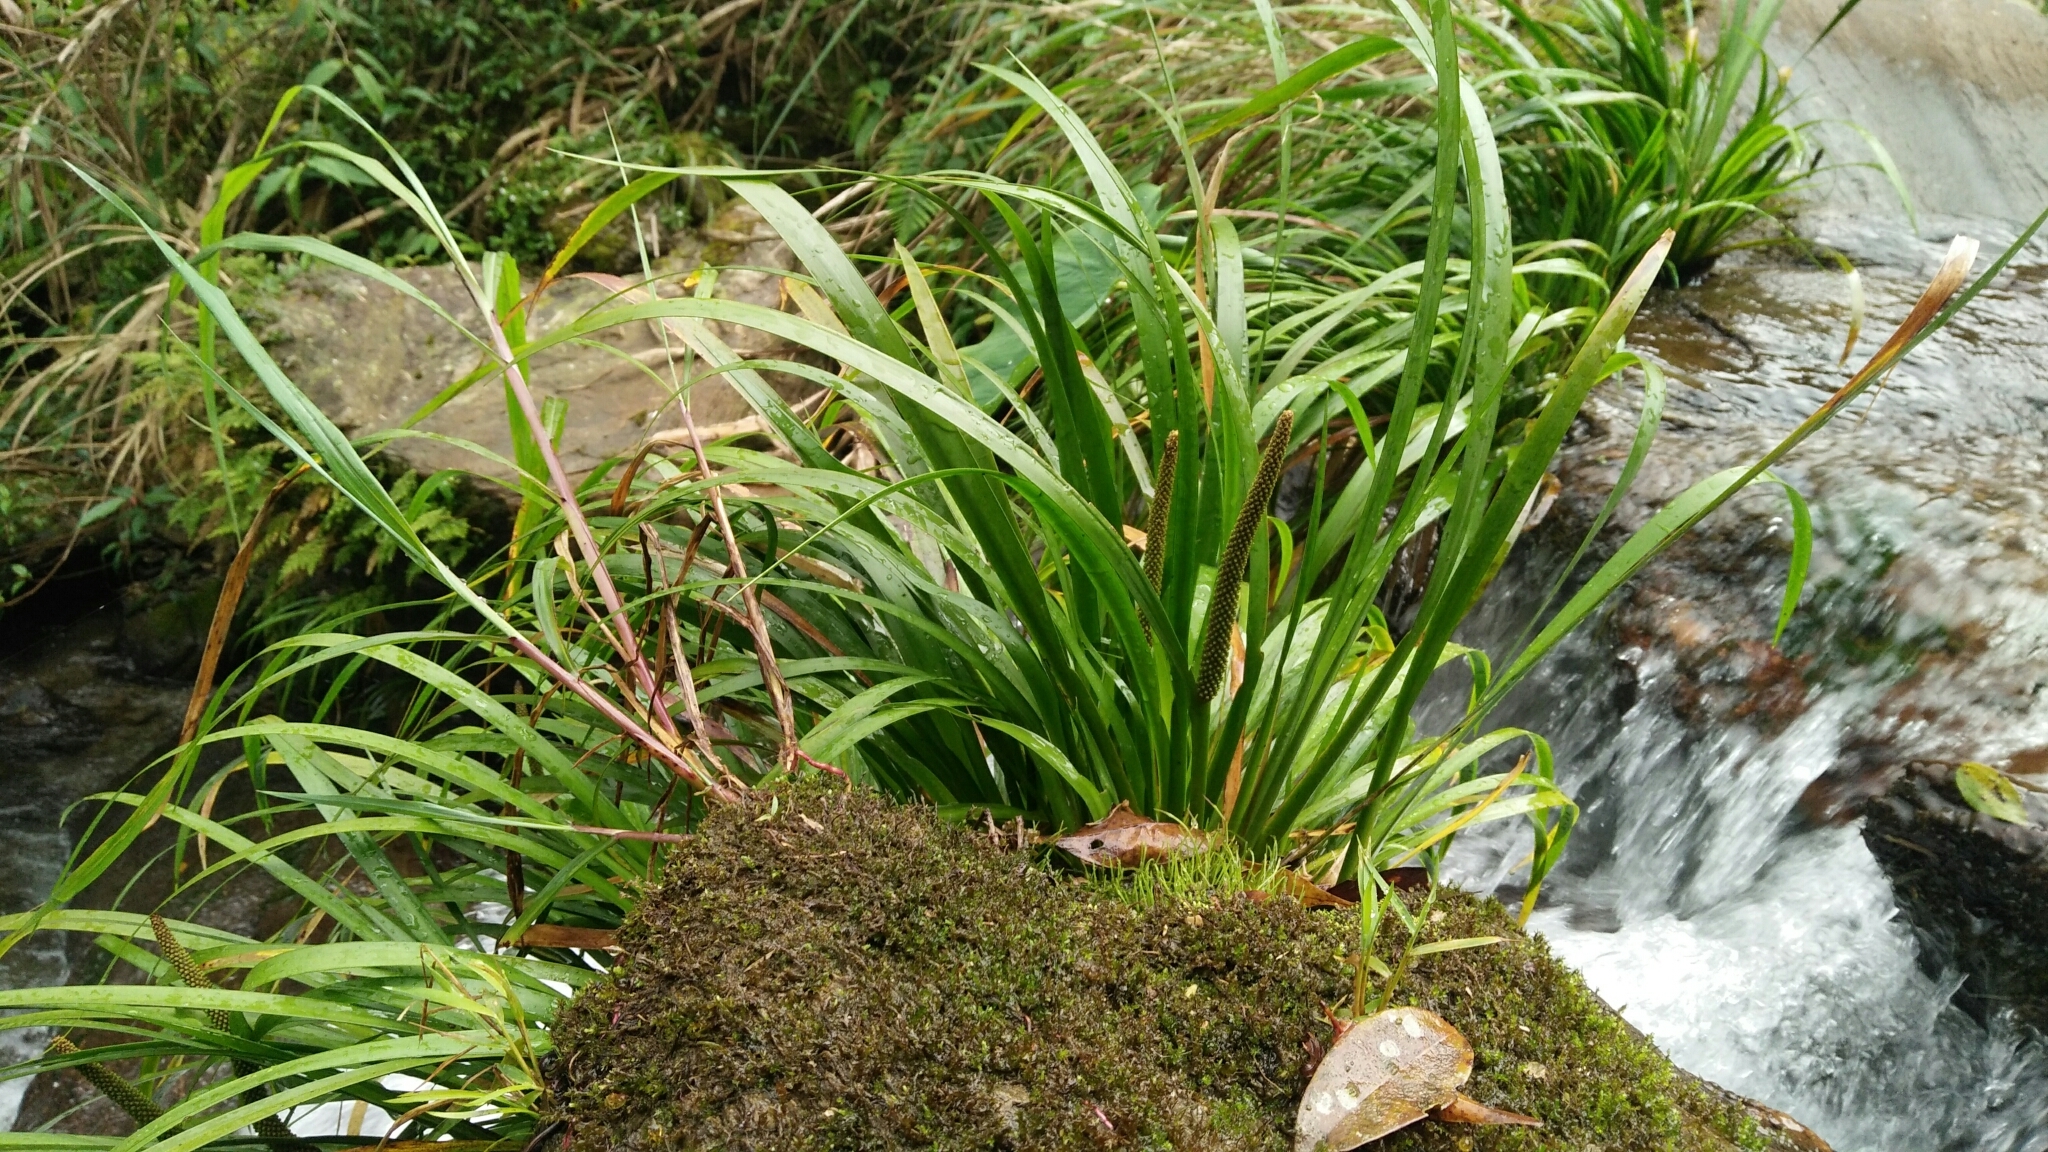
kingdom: Plantae
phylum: Tracheophyta
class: Liliopsida
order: Acorales
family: Acoraceae
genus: Acorus
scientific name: Acorus gramineus
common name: Slender sweet-flag
